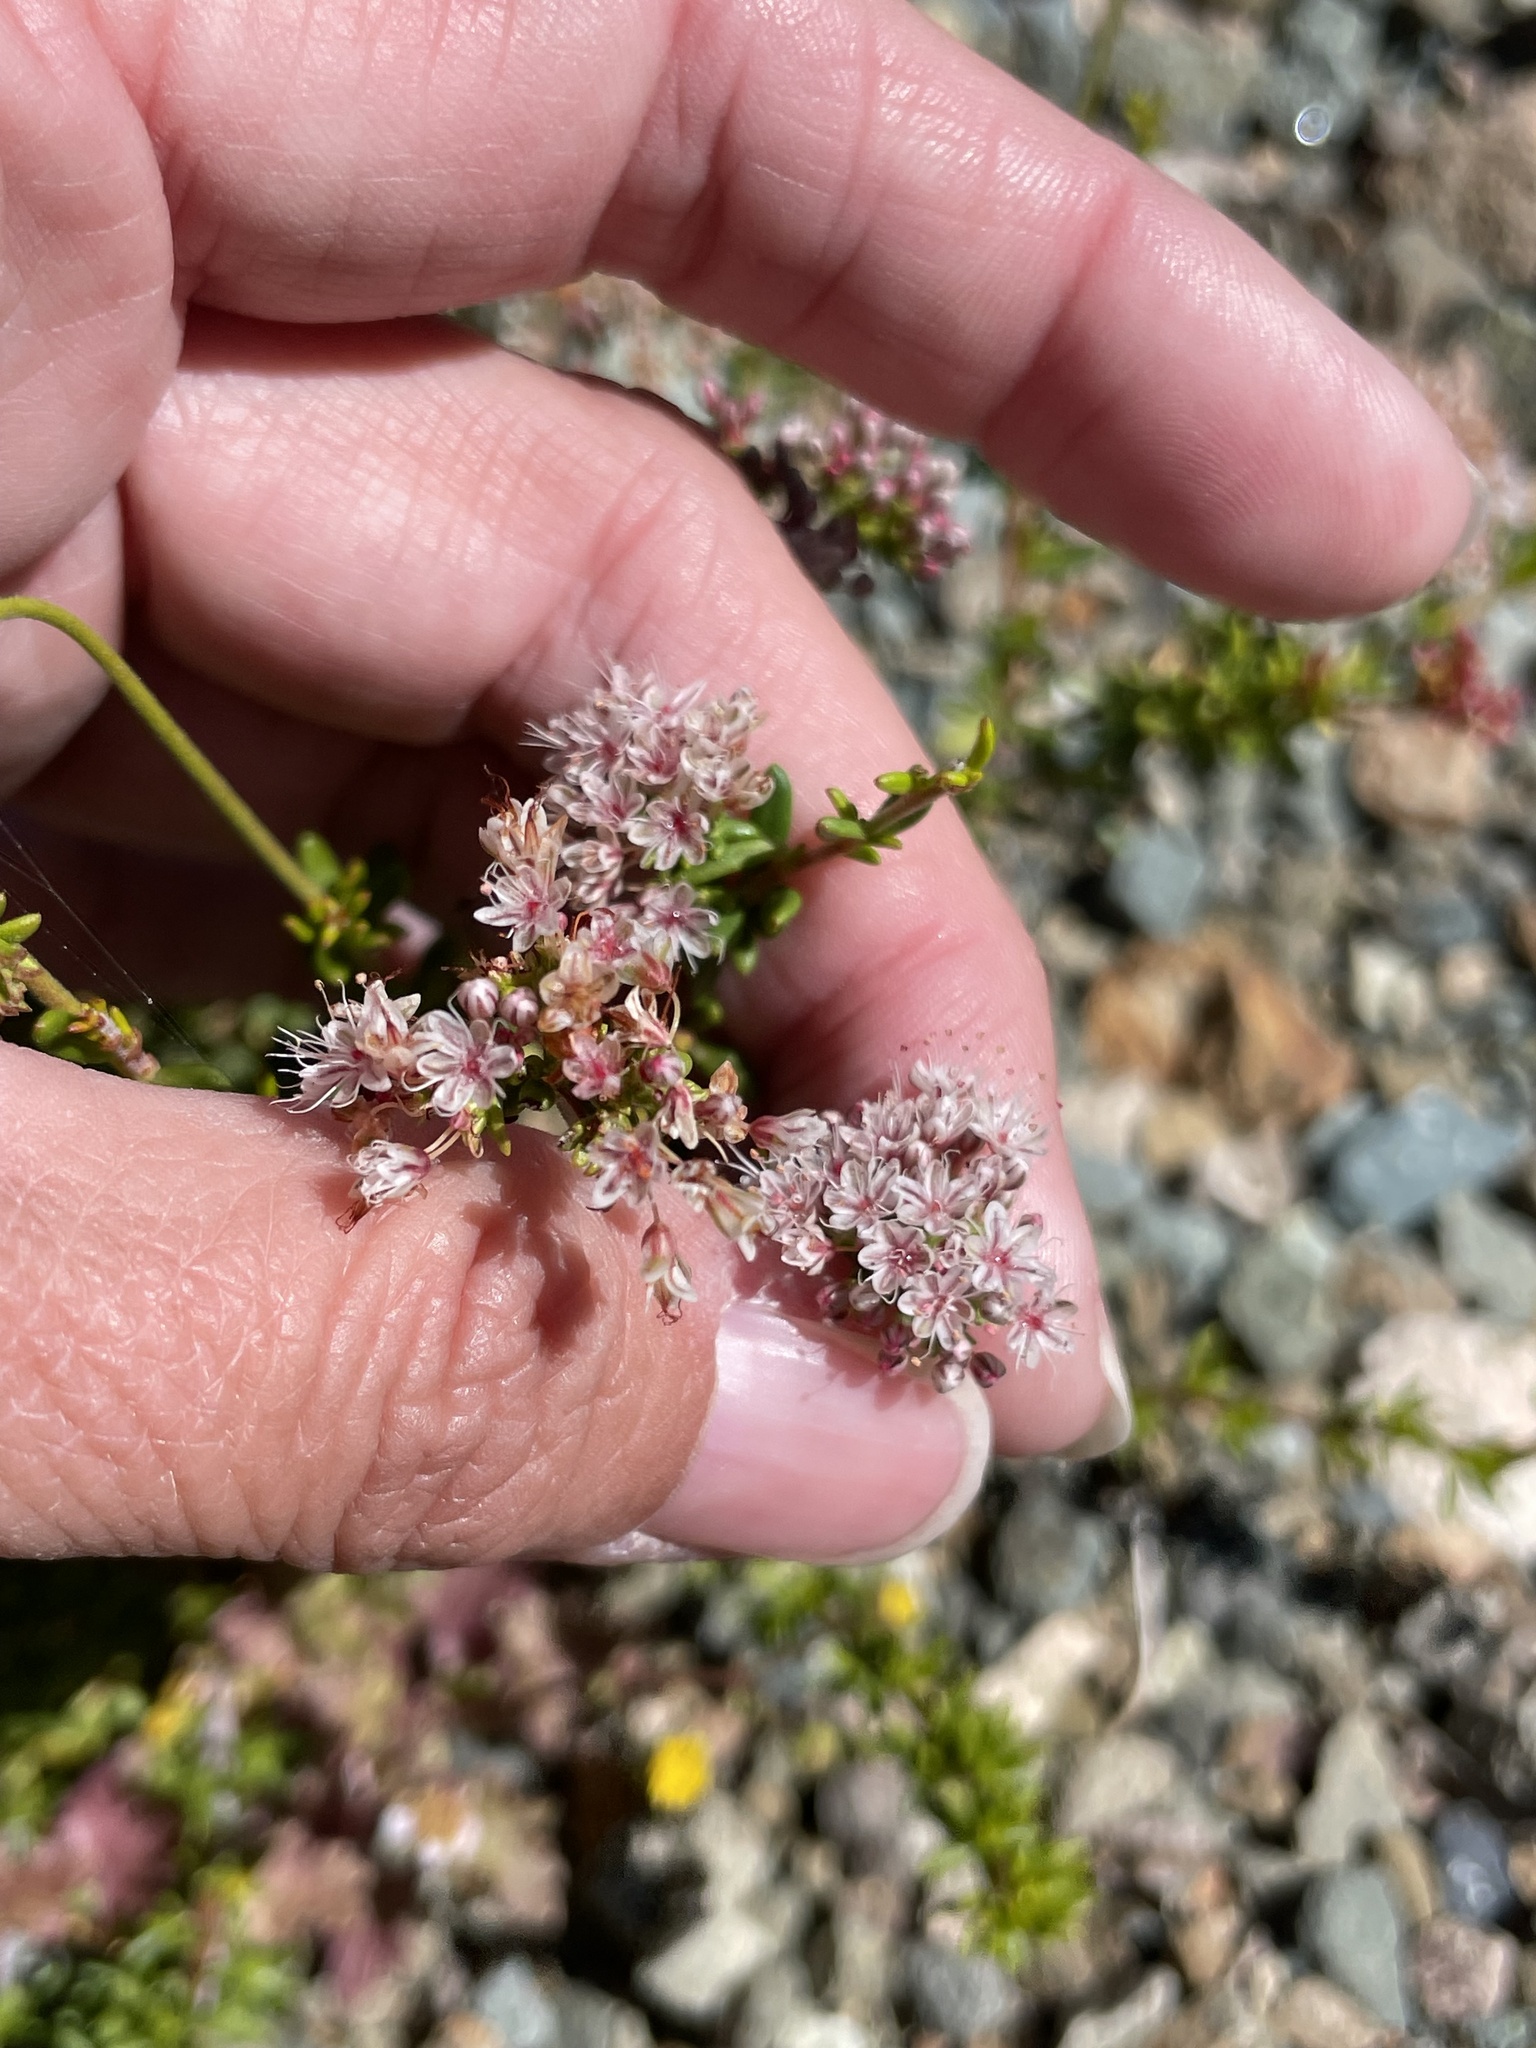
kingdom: Plantae
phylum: Tracheophyta
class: Magnoliopsida
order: Caryophyllales
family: Polygonaceae
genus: Eriogonum
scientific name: Eriogonum fasciculatum
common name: California wild buckwheat
